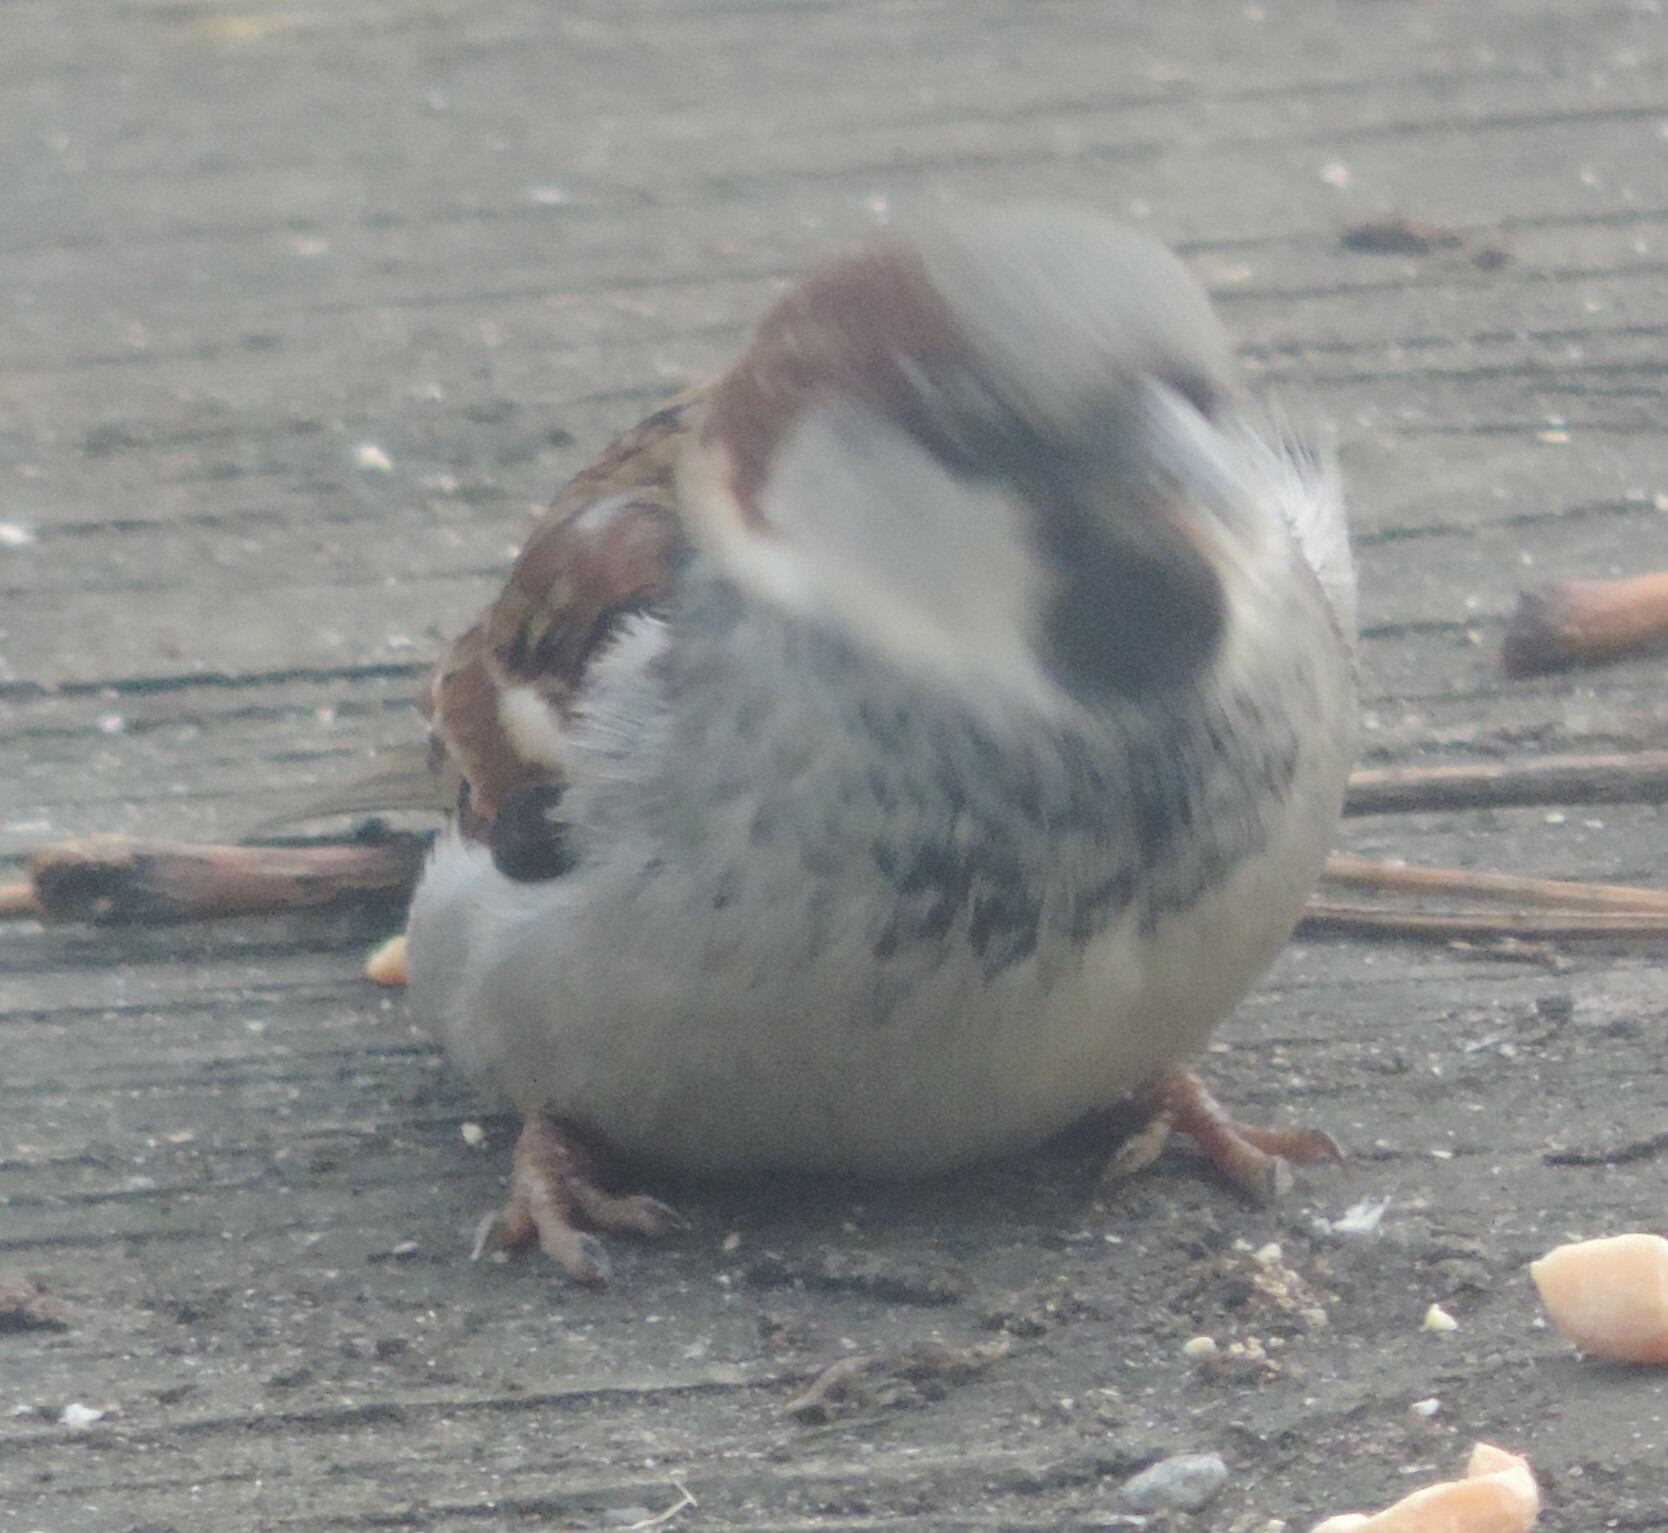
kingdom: Animalia
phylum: Chordata
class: Aves
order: Passeriformes
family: Passeridae
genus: Passer
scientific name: Passer domesticus
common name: House sparrow
